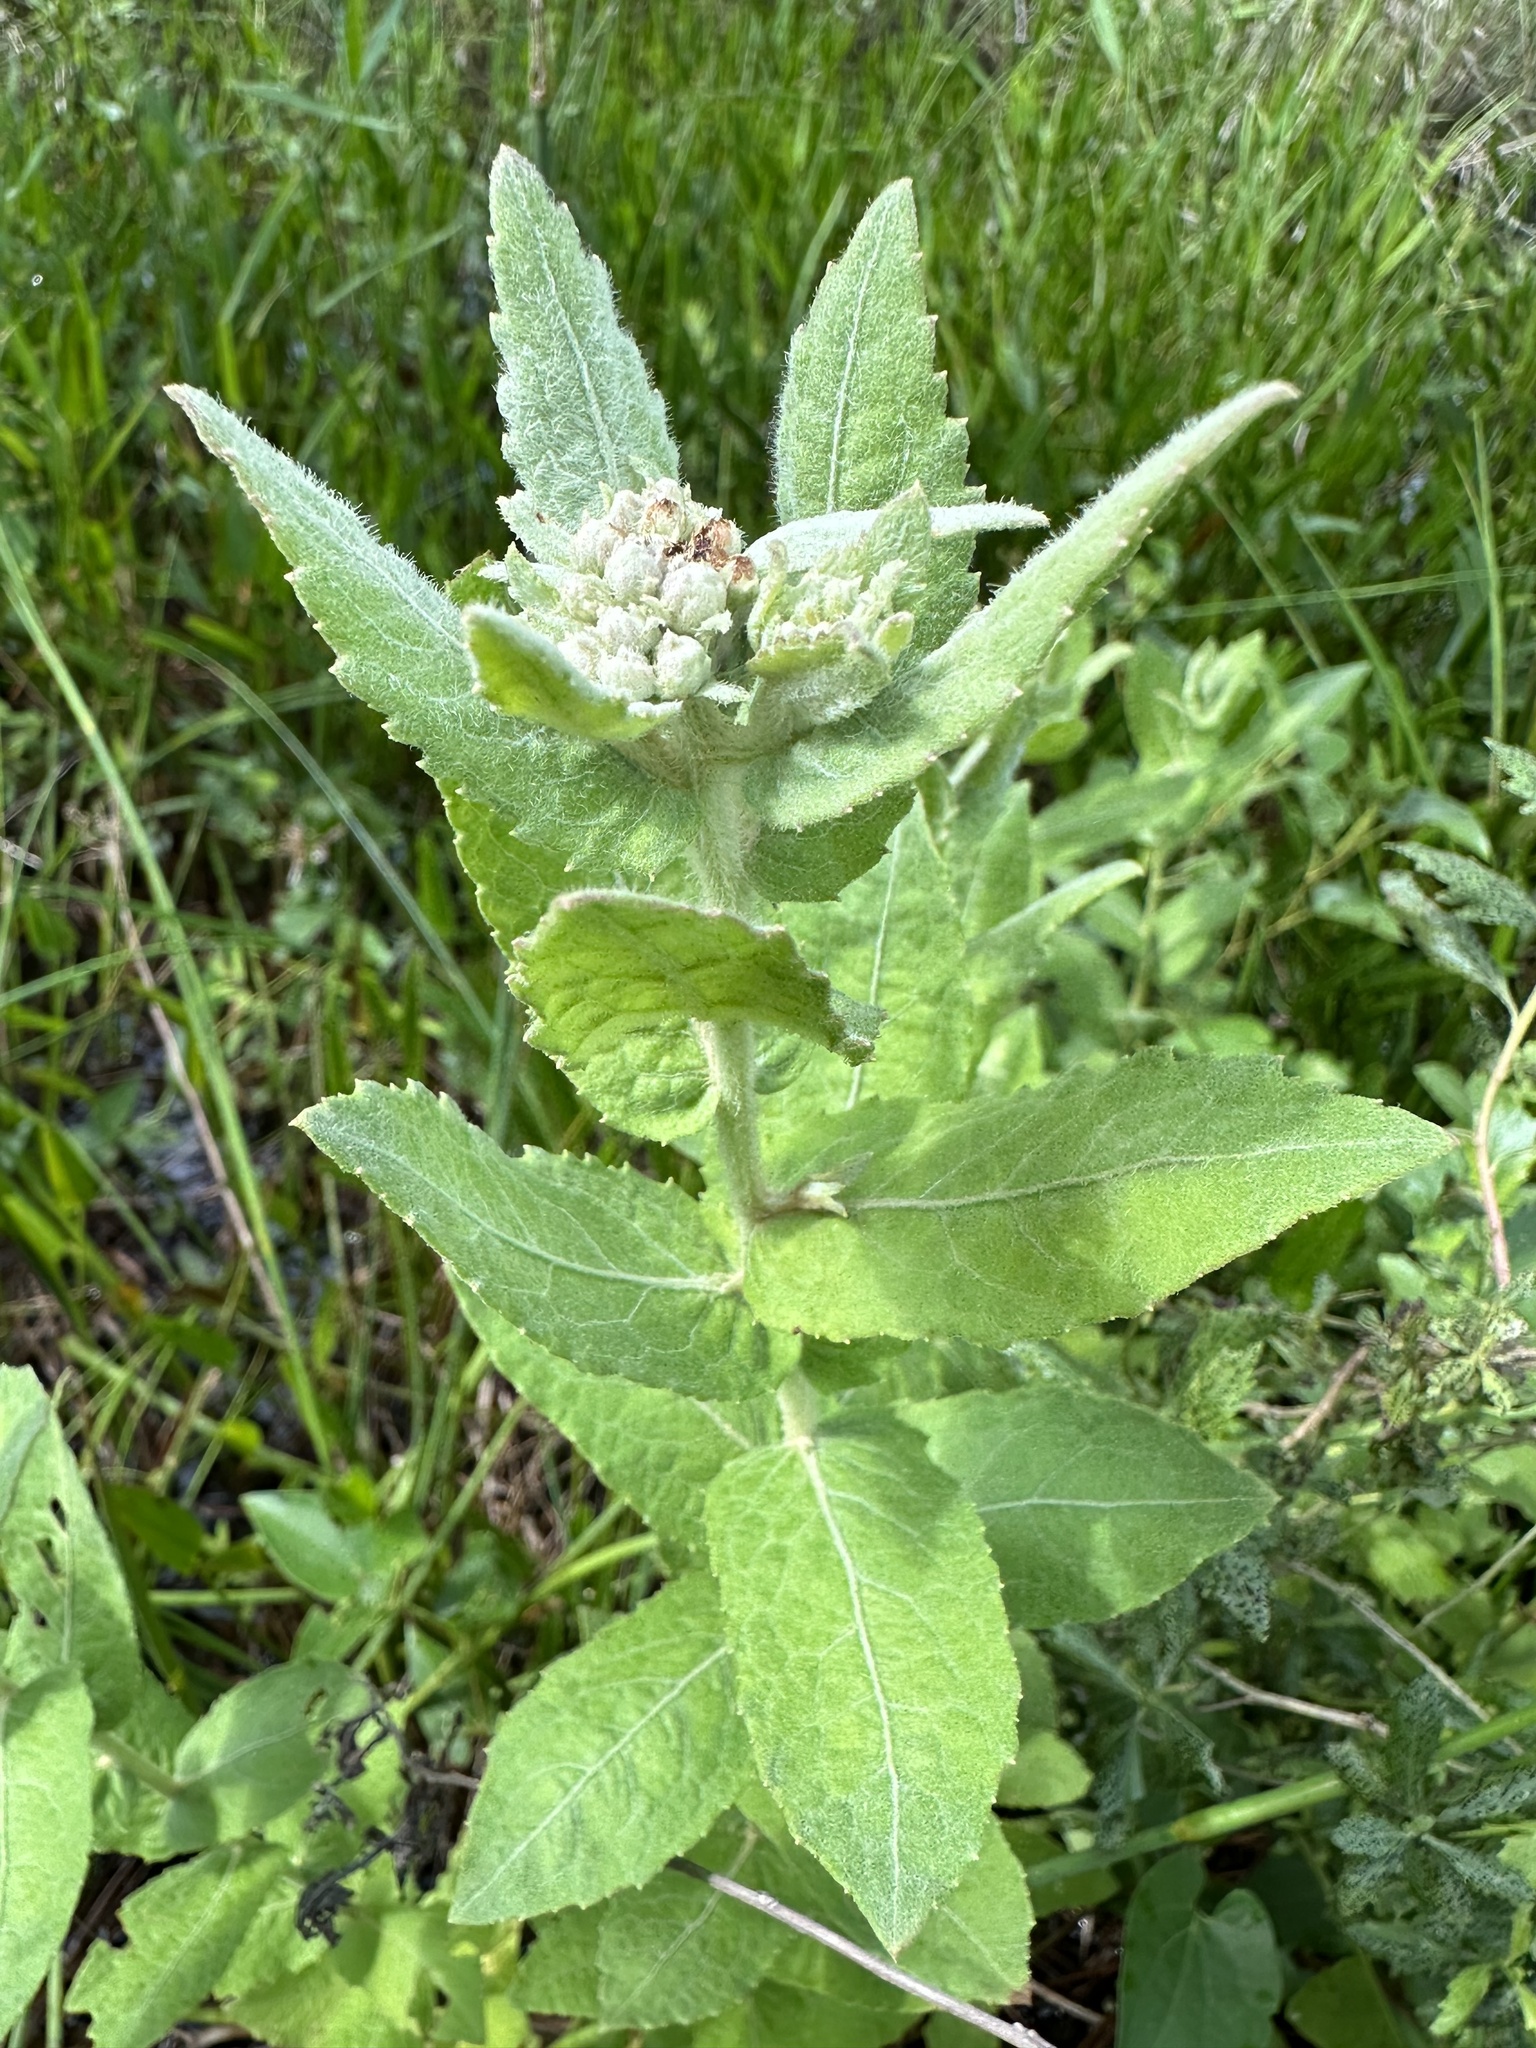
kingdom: Plantae
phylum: Tracheophyta
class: Magnoliopsida
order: Asterales
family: Asteraceae
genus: Pluchea
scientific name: Pluchea baccharis
